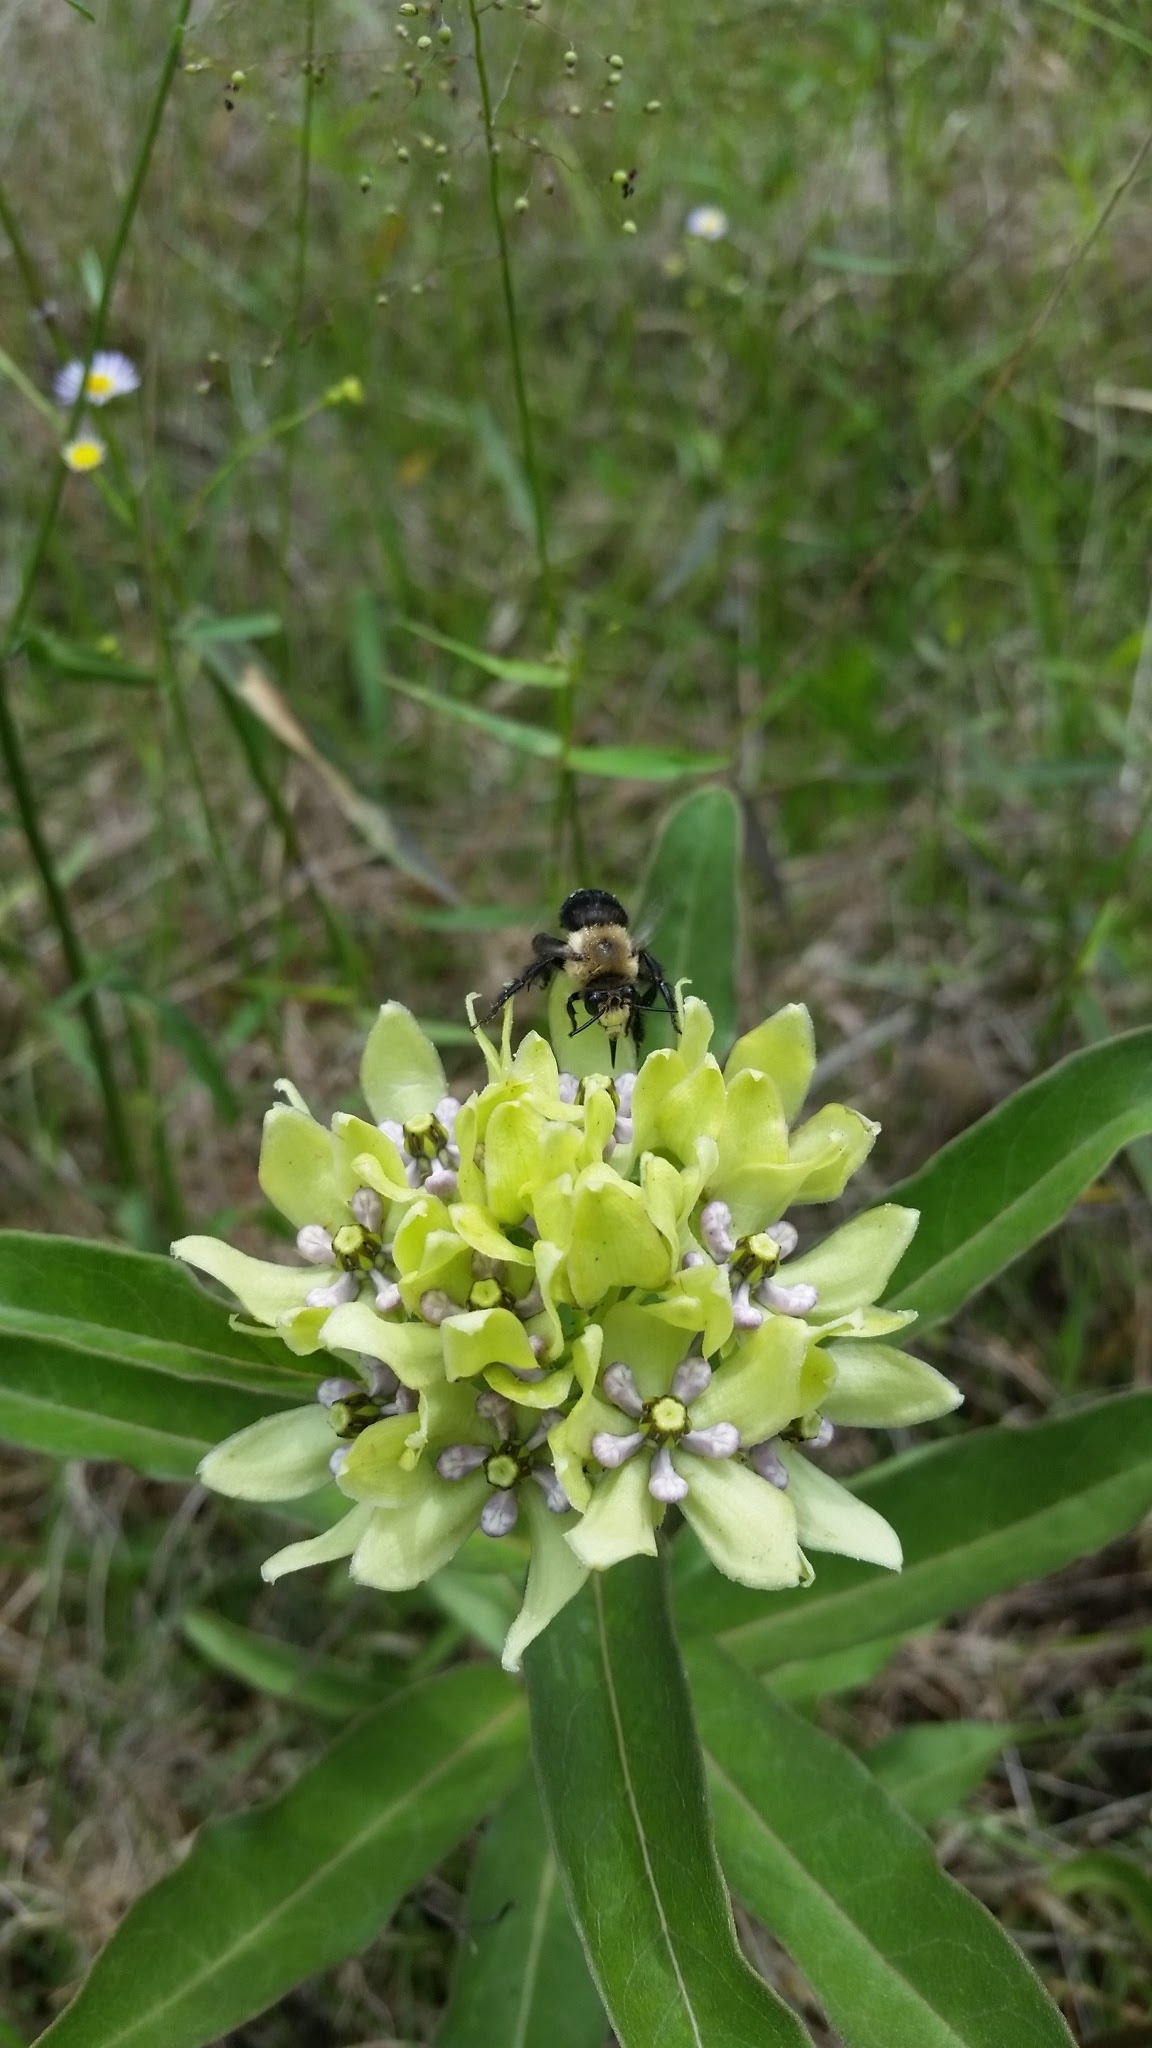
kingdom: Plantae
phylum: Tracheophyta
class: Magnoliopsida
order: Gentianales
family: Apocynaceae
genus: Asclepias
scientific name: Asclepias viridis
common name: Antelope-horns
